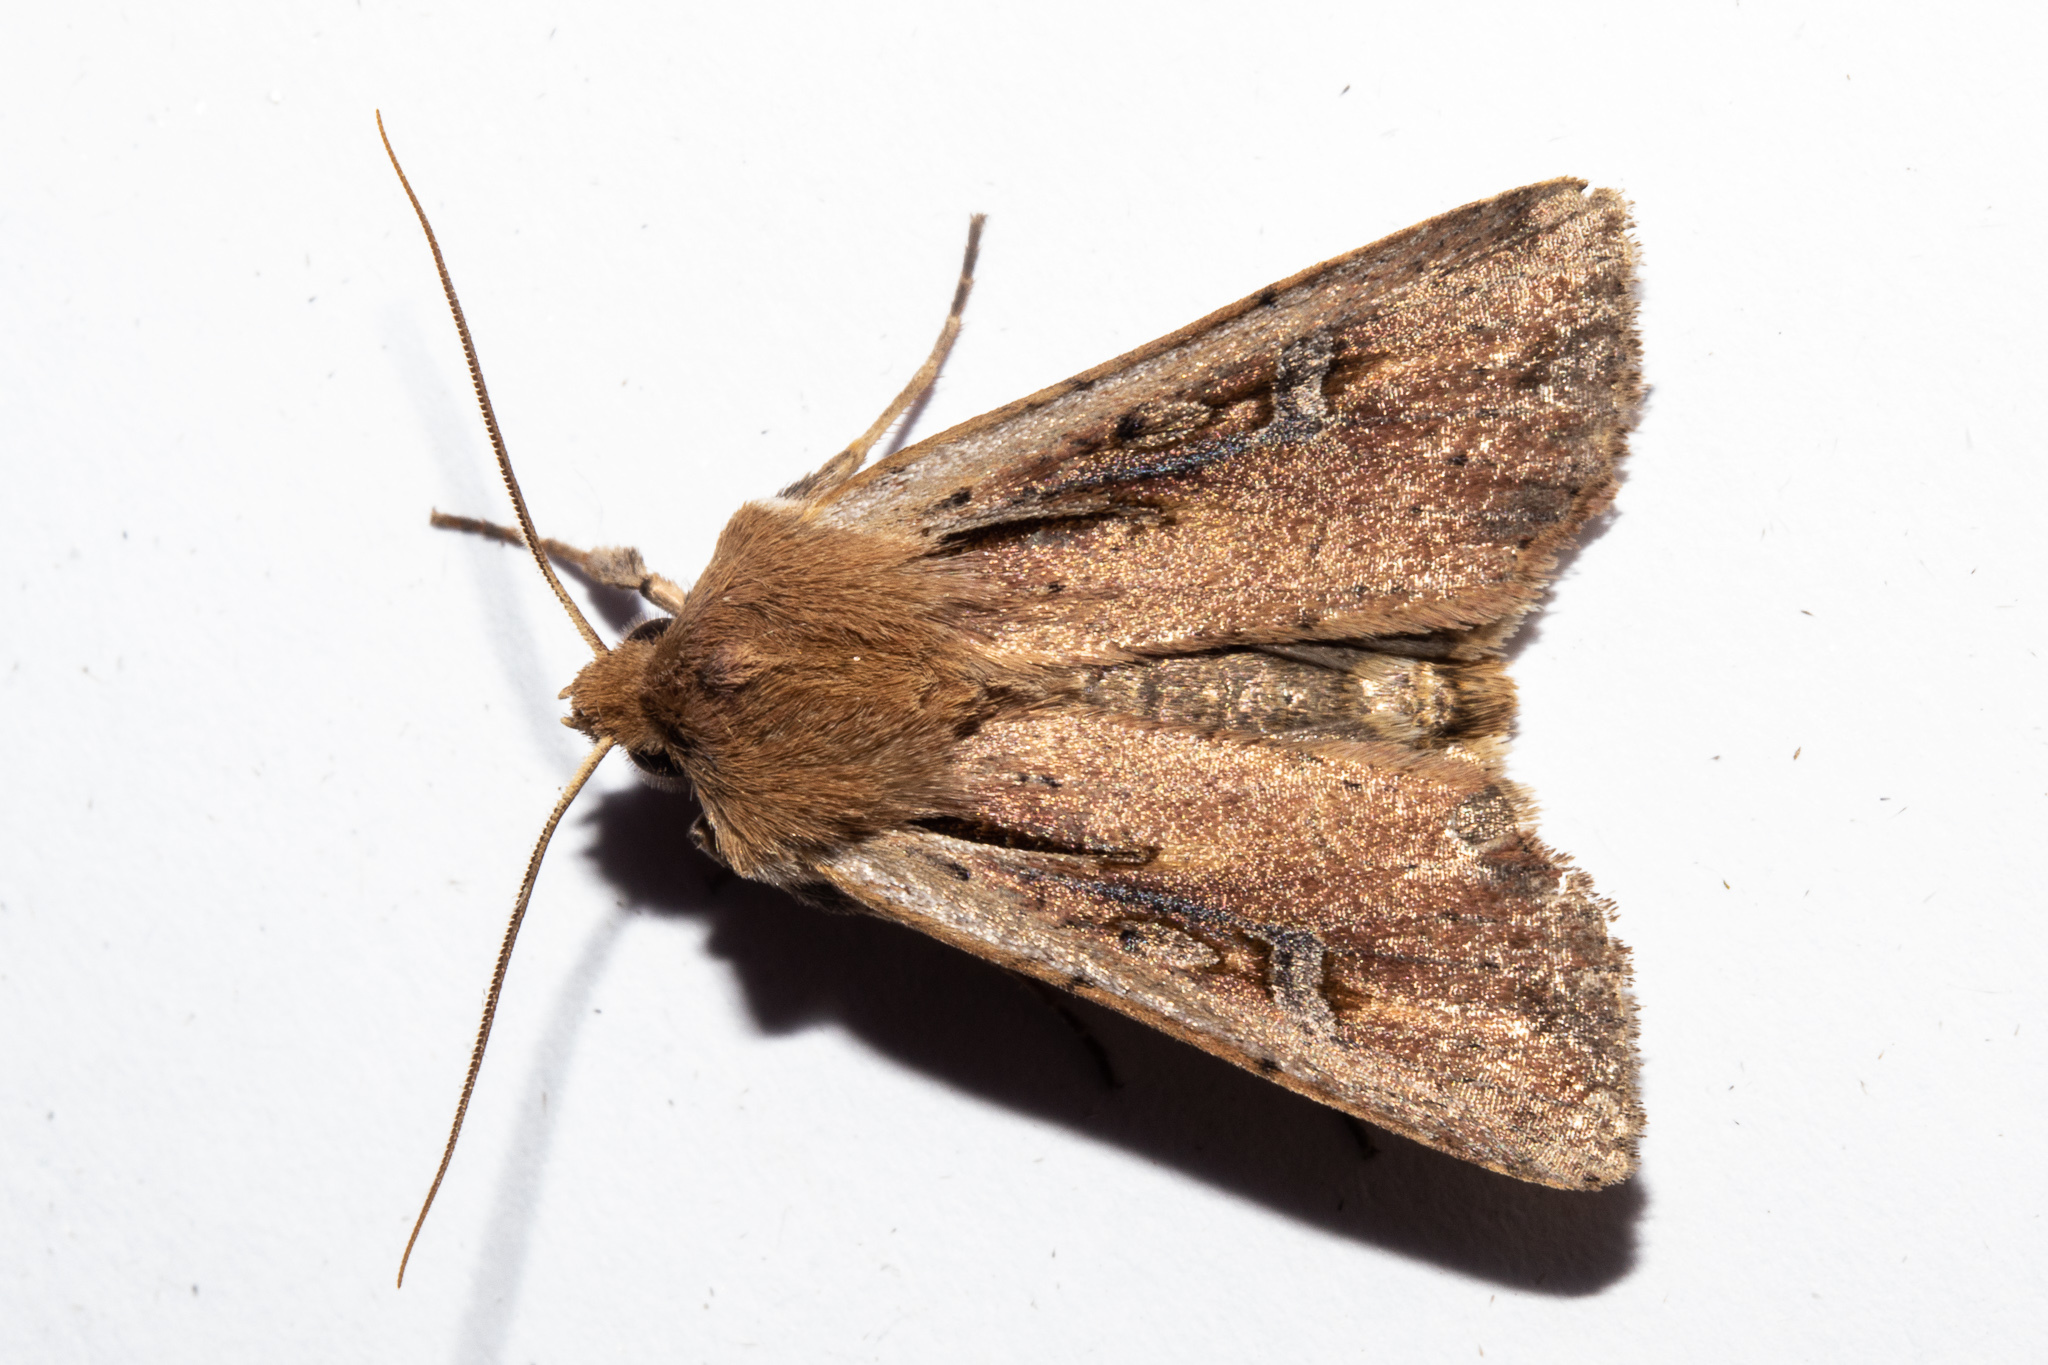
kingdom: Animalia
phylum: Arthropoda
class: Insecta
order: Lepidoptera
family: Noctuidae
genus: Ichneutica
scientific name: Ichneutica atristriga
